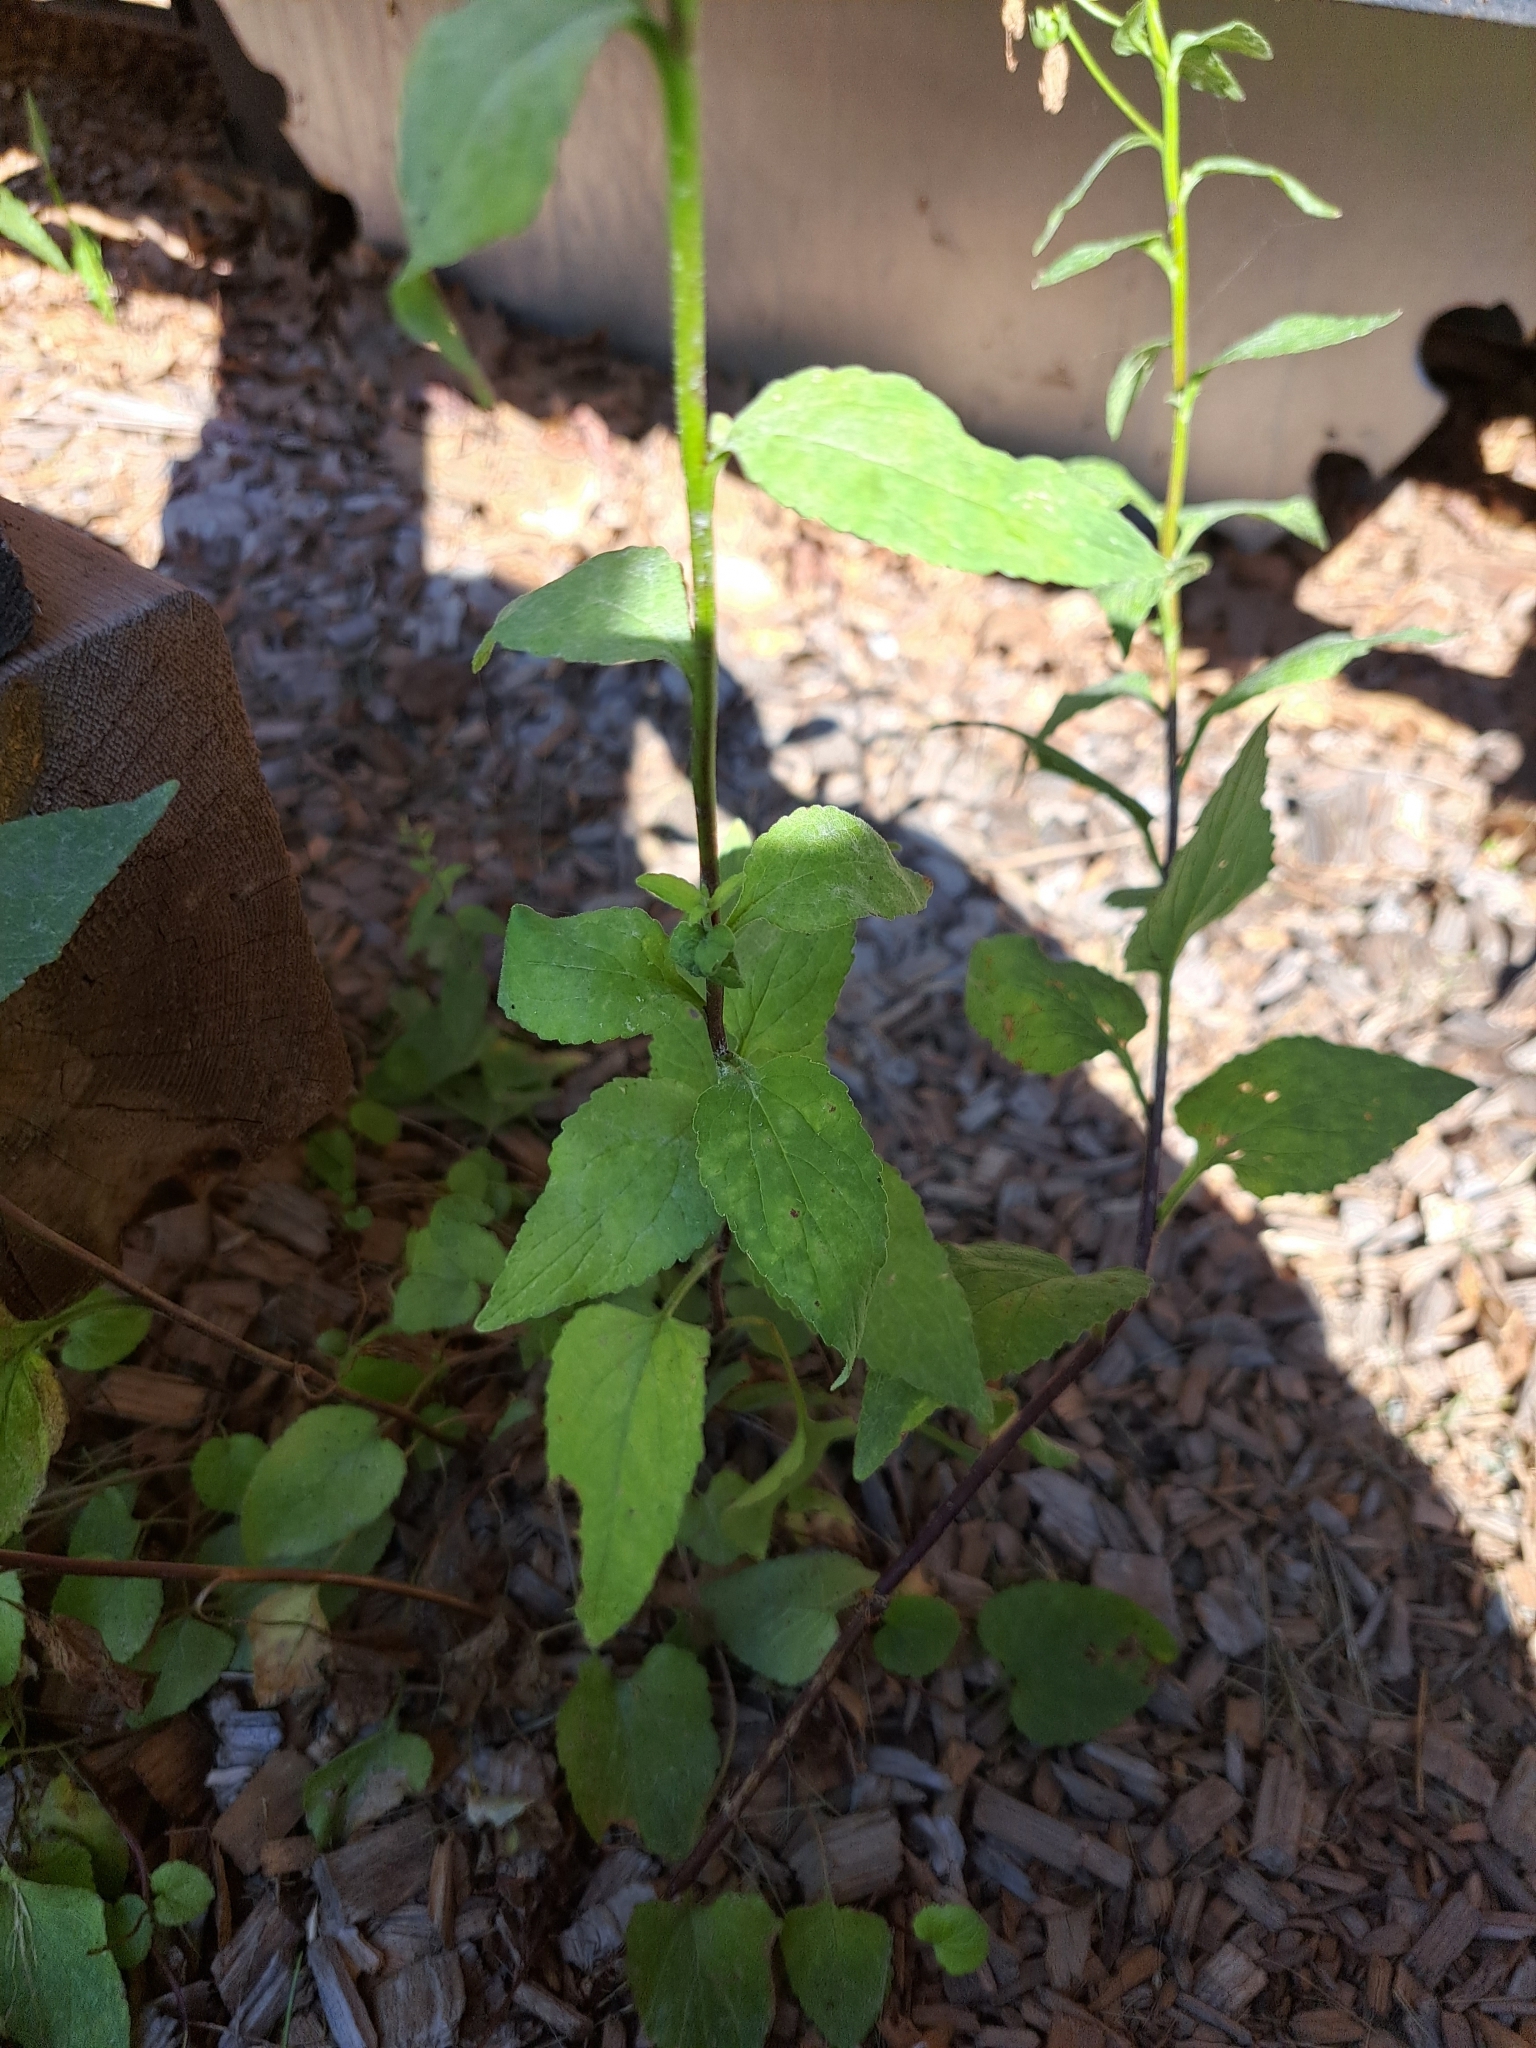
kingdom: Plantae
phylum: Tracheophyta
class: Magnoliopsida
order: Asterales
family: Campanulaceae
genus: Campanula
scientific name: Campanula rapunculoides
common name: Creeping bellflower
